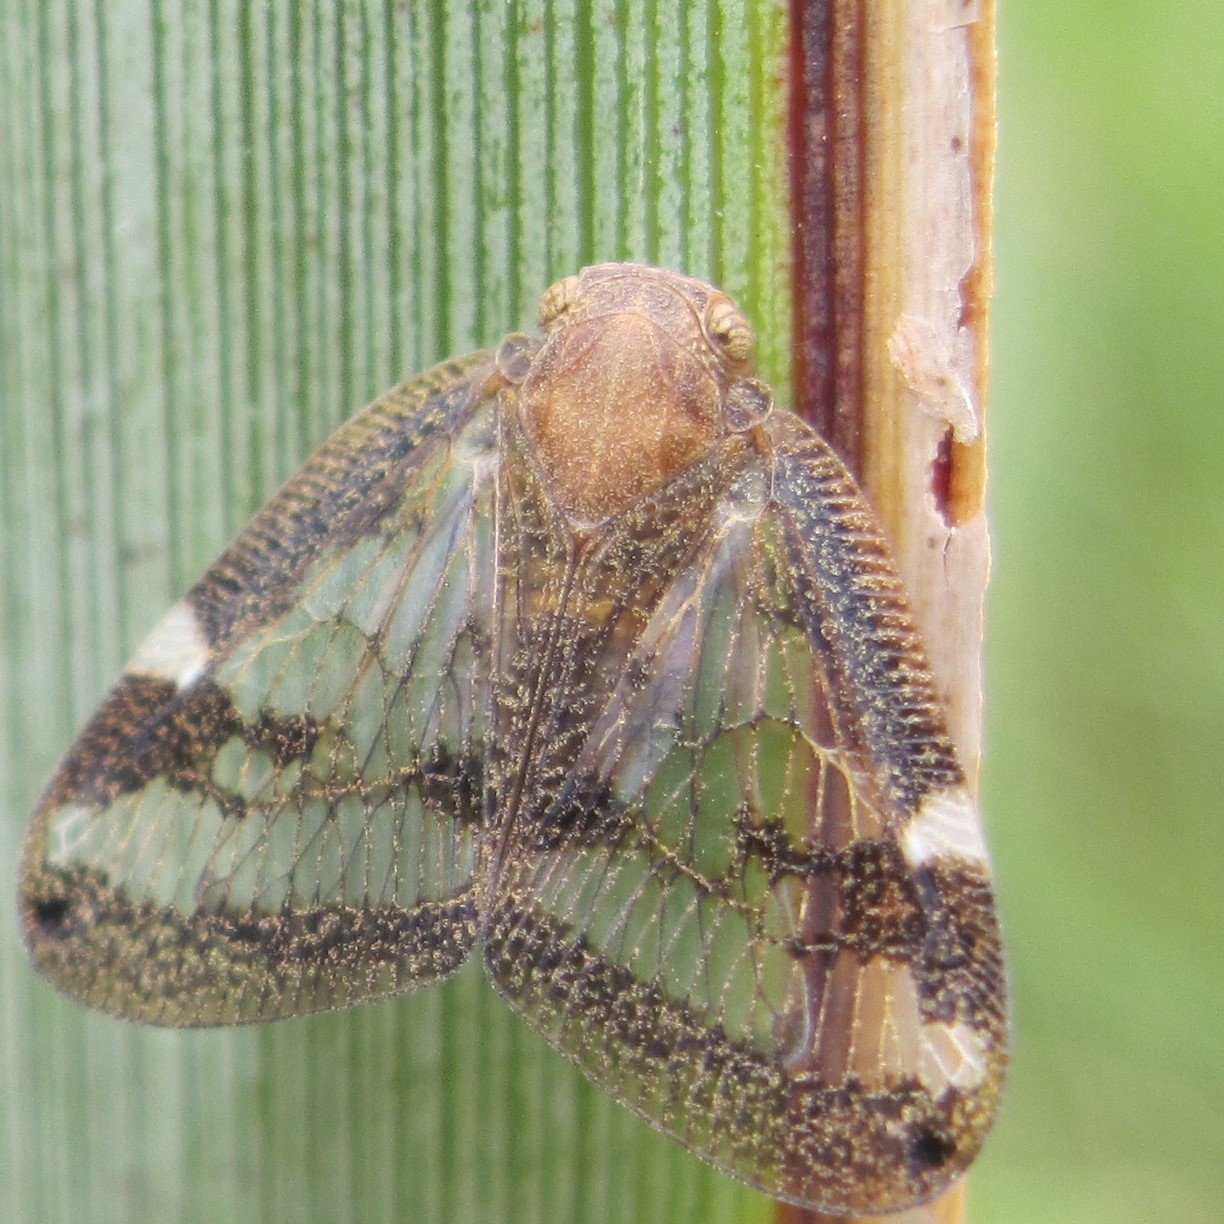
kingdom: Animalia
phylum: Arthropoda
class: Insecta
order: Hemiptera
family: Ricaniidae
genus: Scolypopa
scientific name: Scolypopa australis
